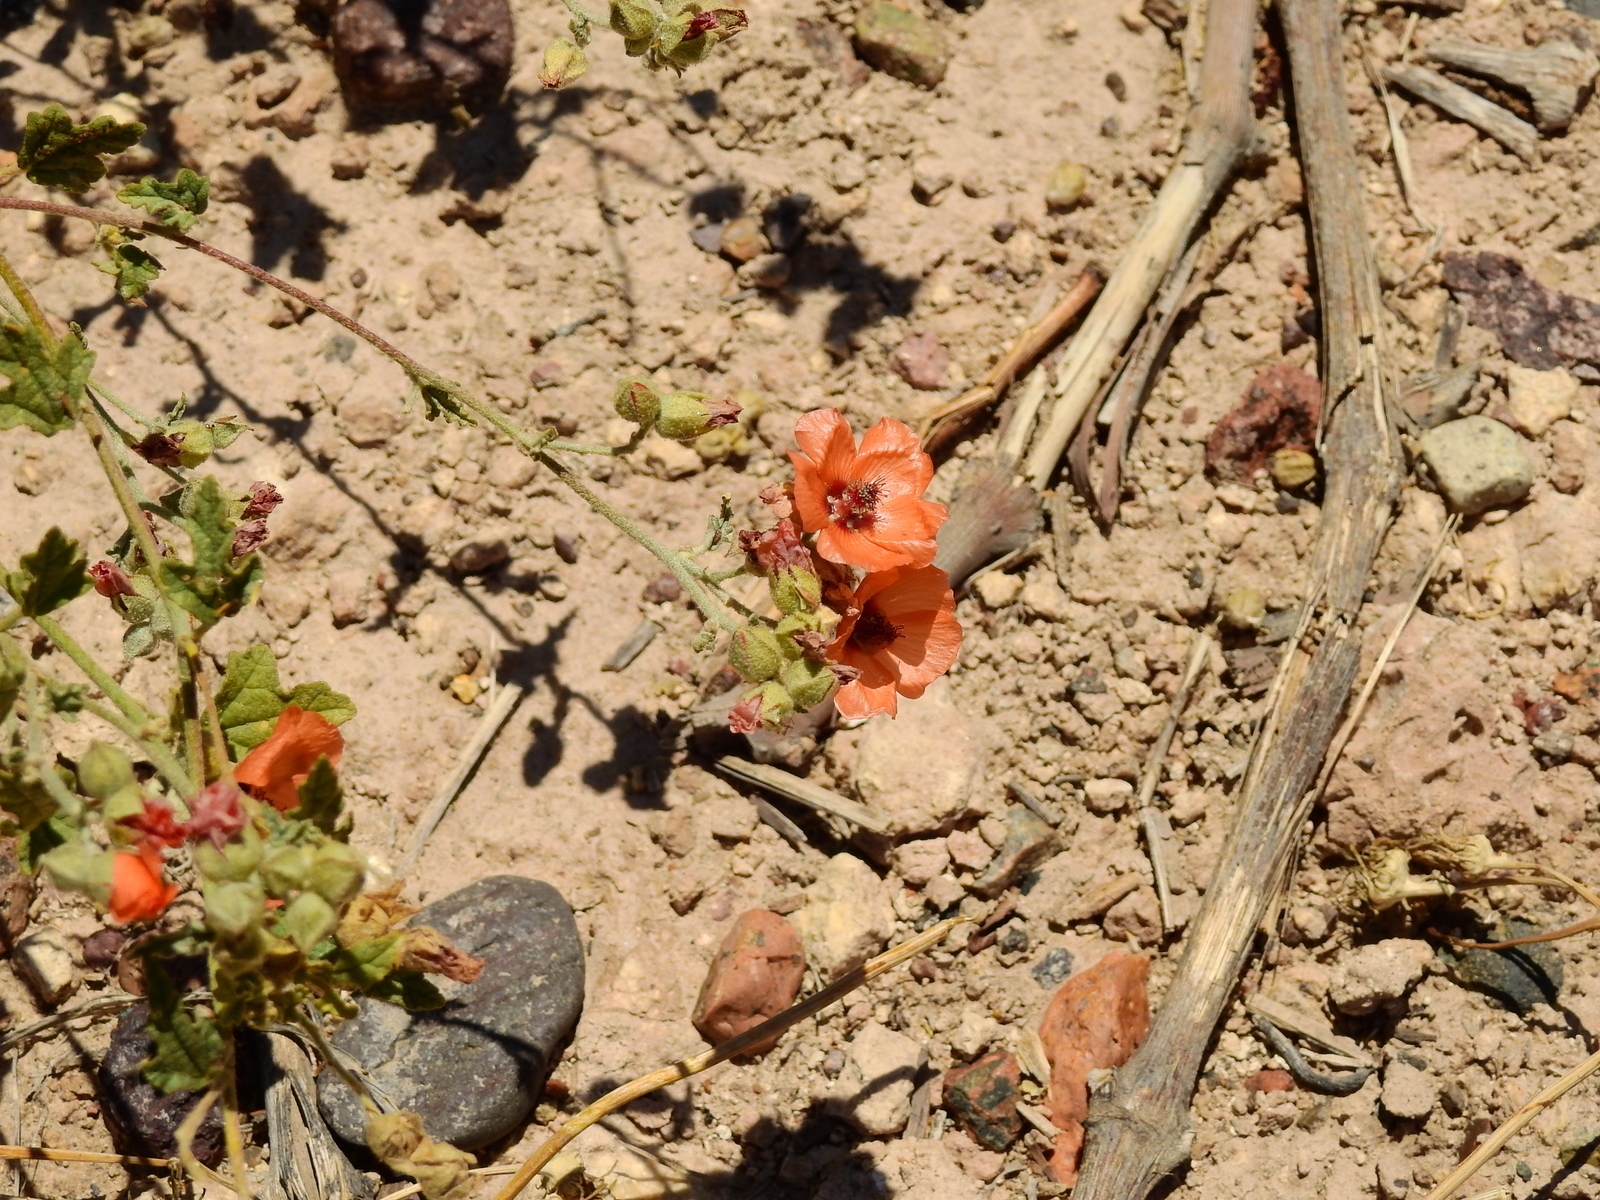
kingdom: Plantae
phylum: Tracheophyta
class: Magnoliopsida
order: Malvales
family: Malvaceae
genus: Sphaeralcea
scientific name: Sphaeralcea miniata
